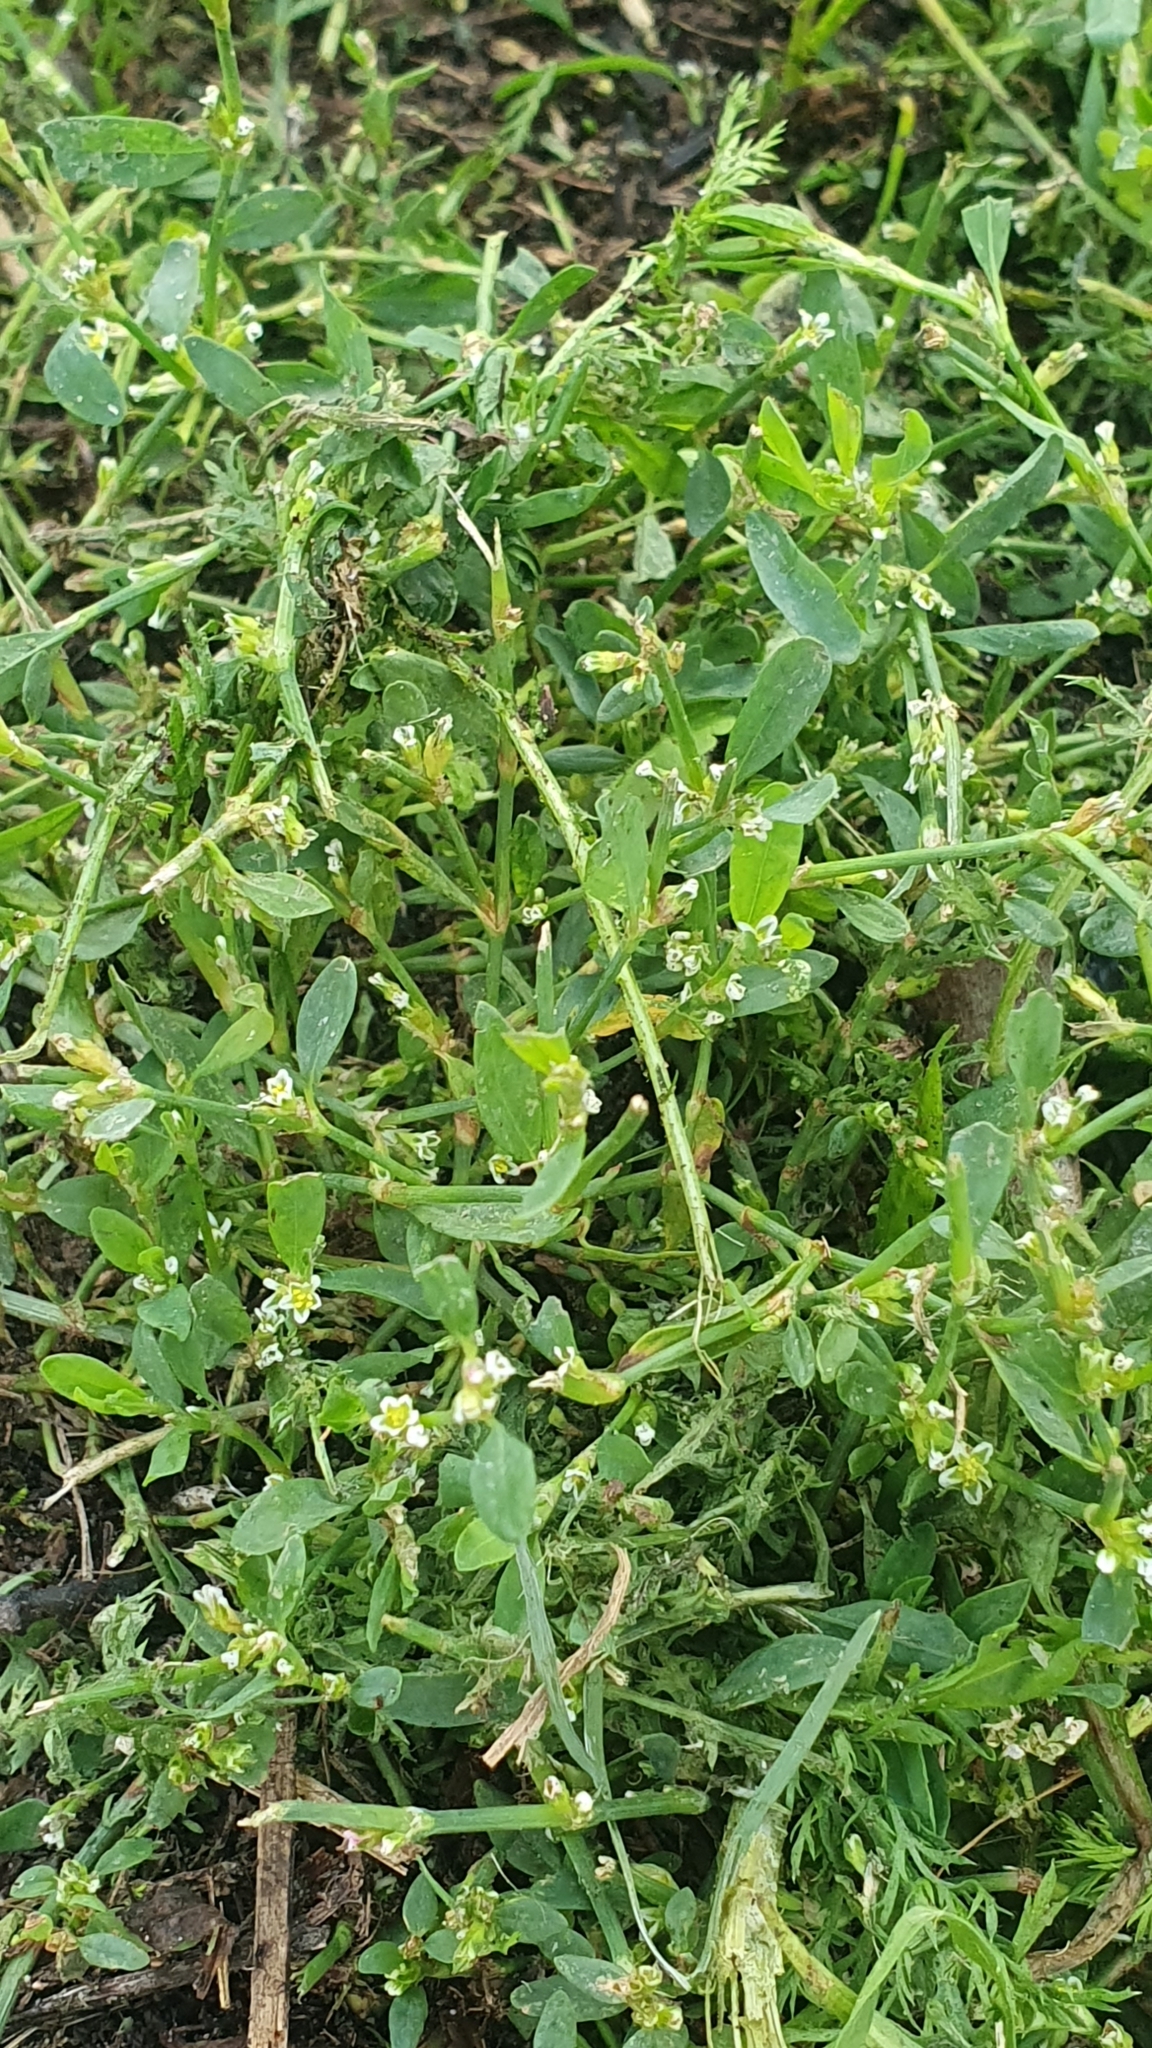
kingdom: Plantae
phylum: Tracheophyta
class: Magnoliopsida
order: Caryophyllales
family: Polygonaceae
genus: Polygonum
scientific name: Polygonum
